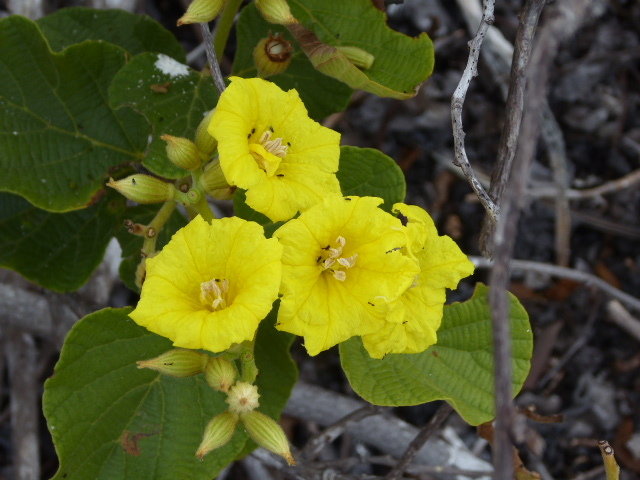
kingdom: Plantae
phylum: Tracheophyta
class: Magnoliopsida
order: Boraginales
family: Cordiaceae
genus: Cordia
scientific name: Cordia lutea
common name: Yellow geiger
